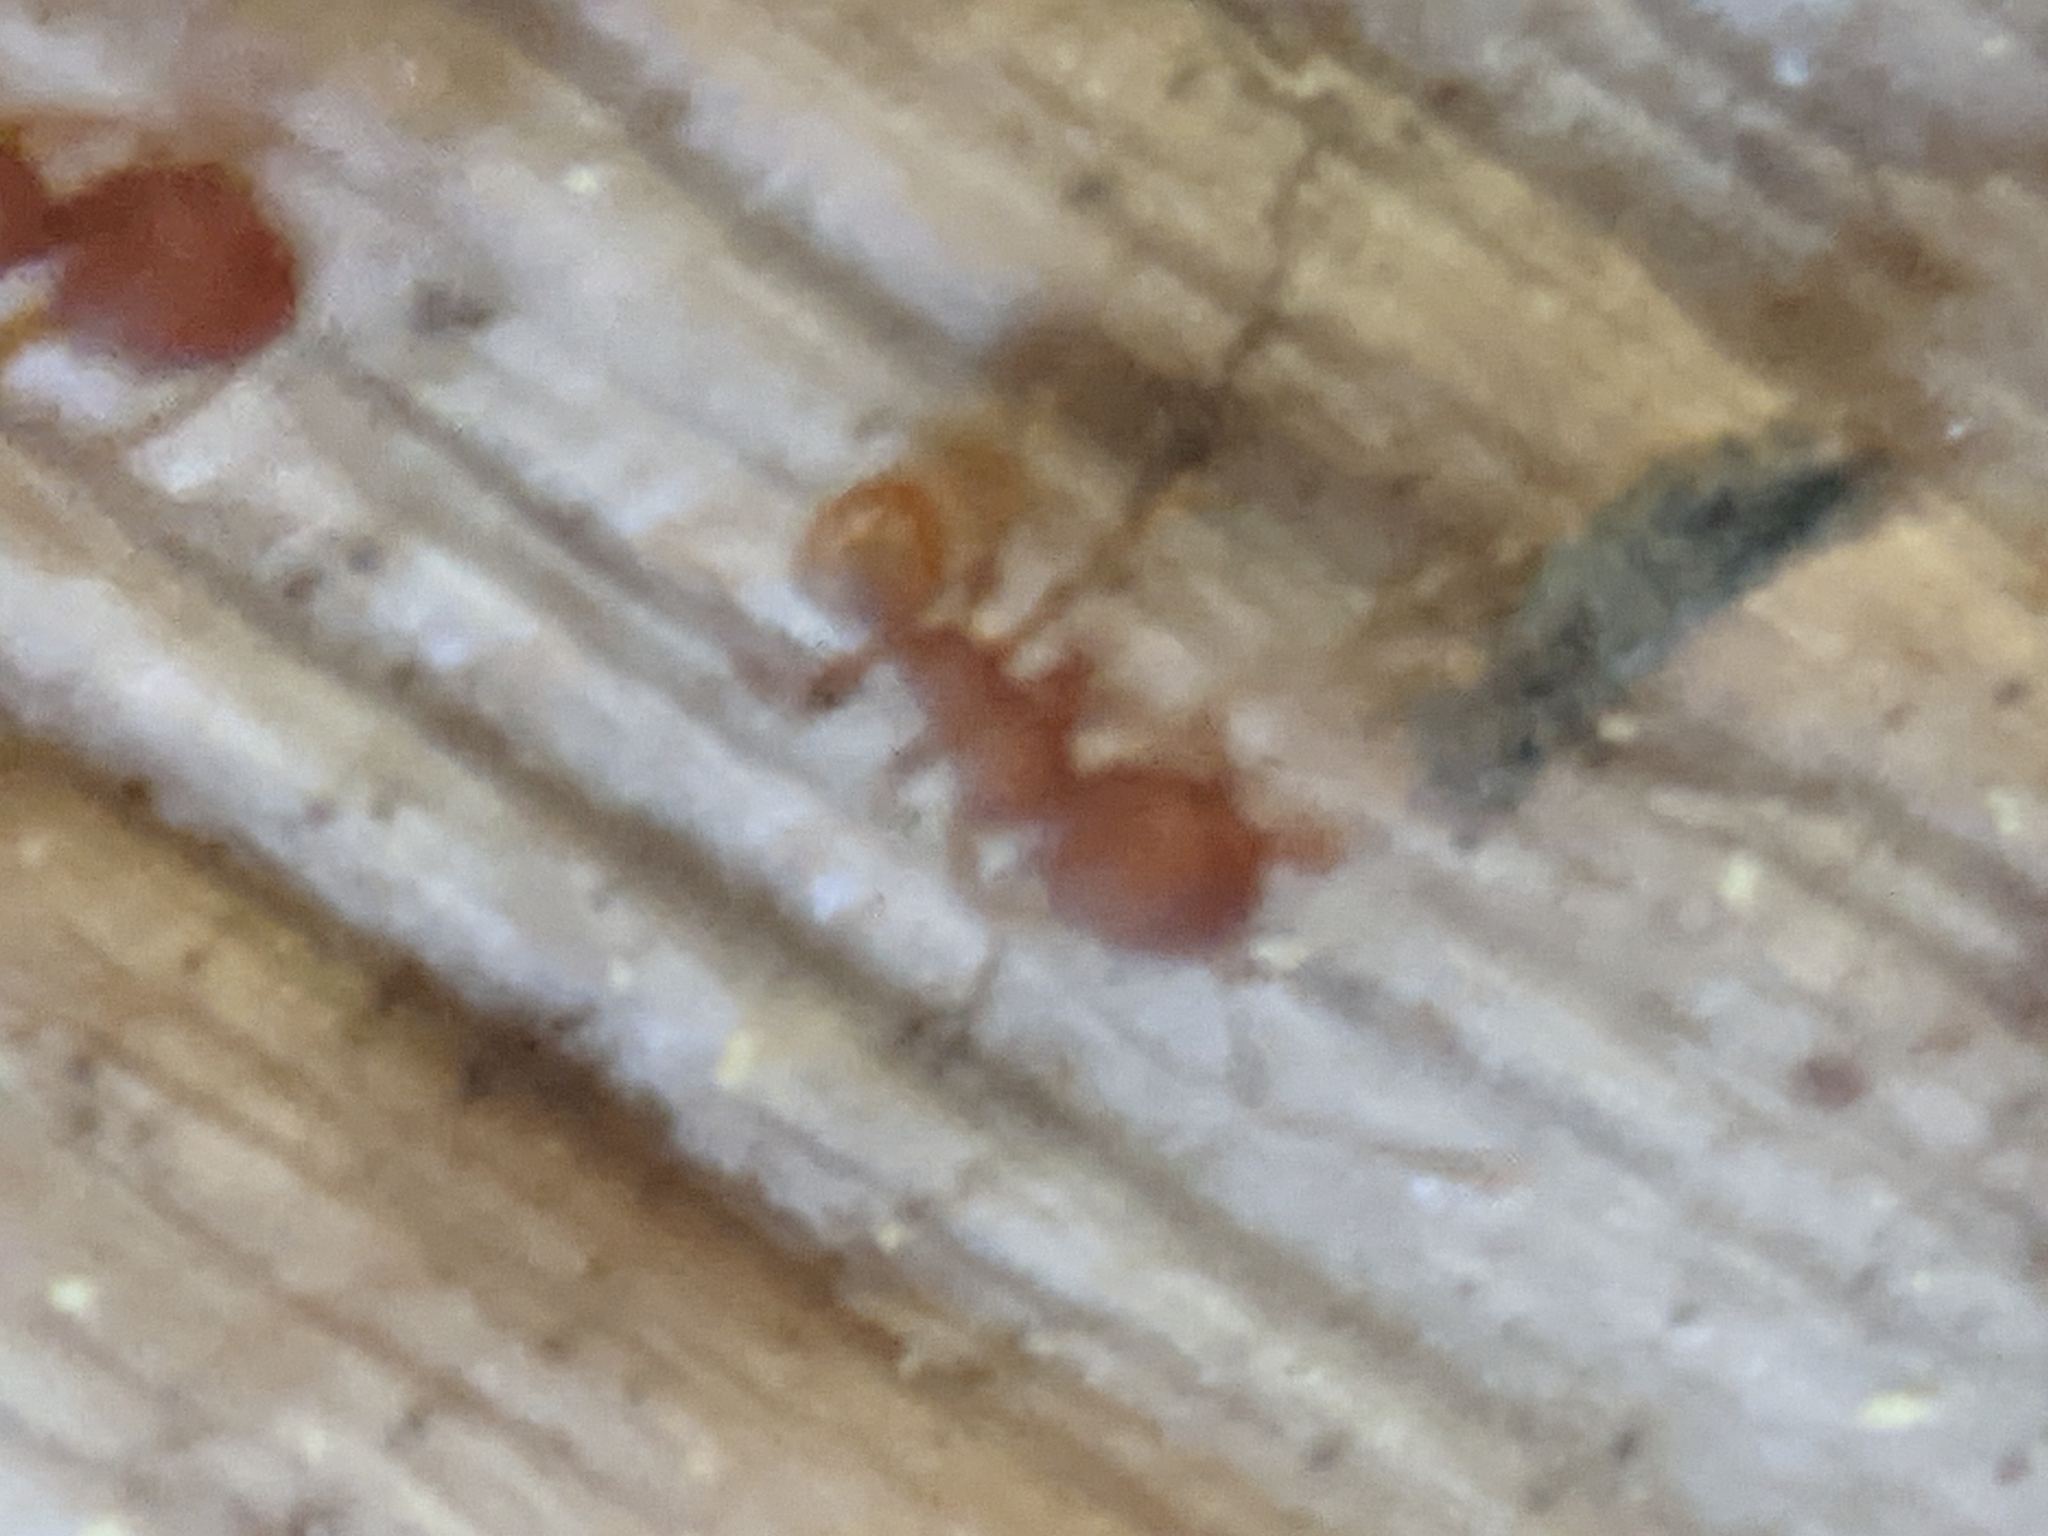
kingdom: Animalia
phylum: Arthropoda
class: Insecta
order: Hymenoptera
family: Formicidae
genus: Pheidole
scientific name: Pheidole navigans
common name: Navigating big-headed ant
